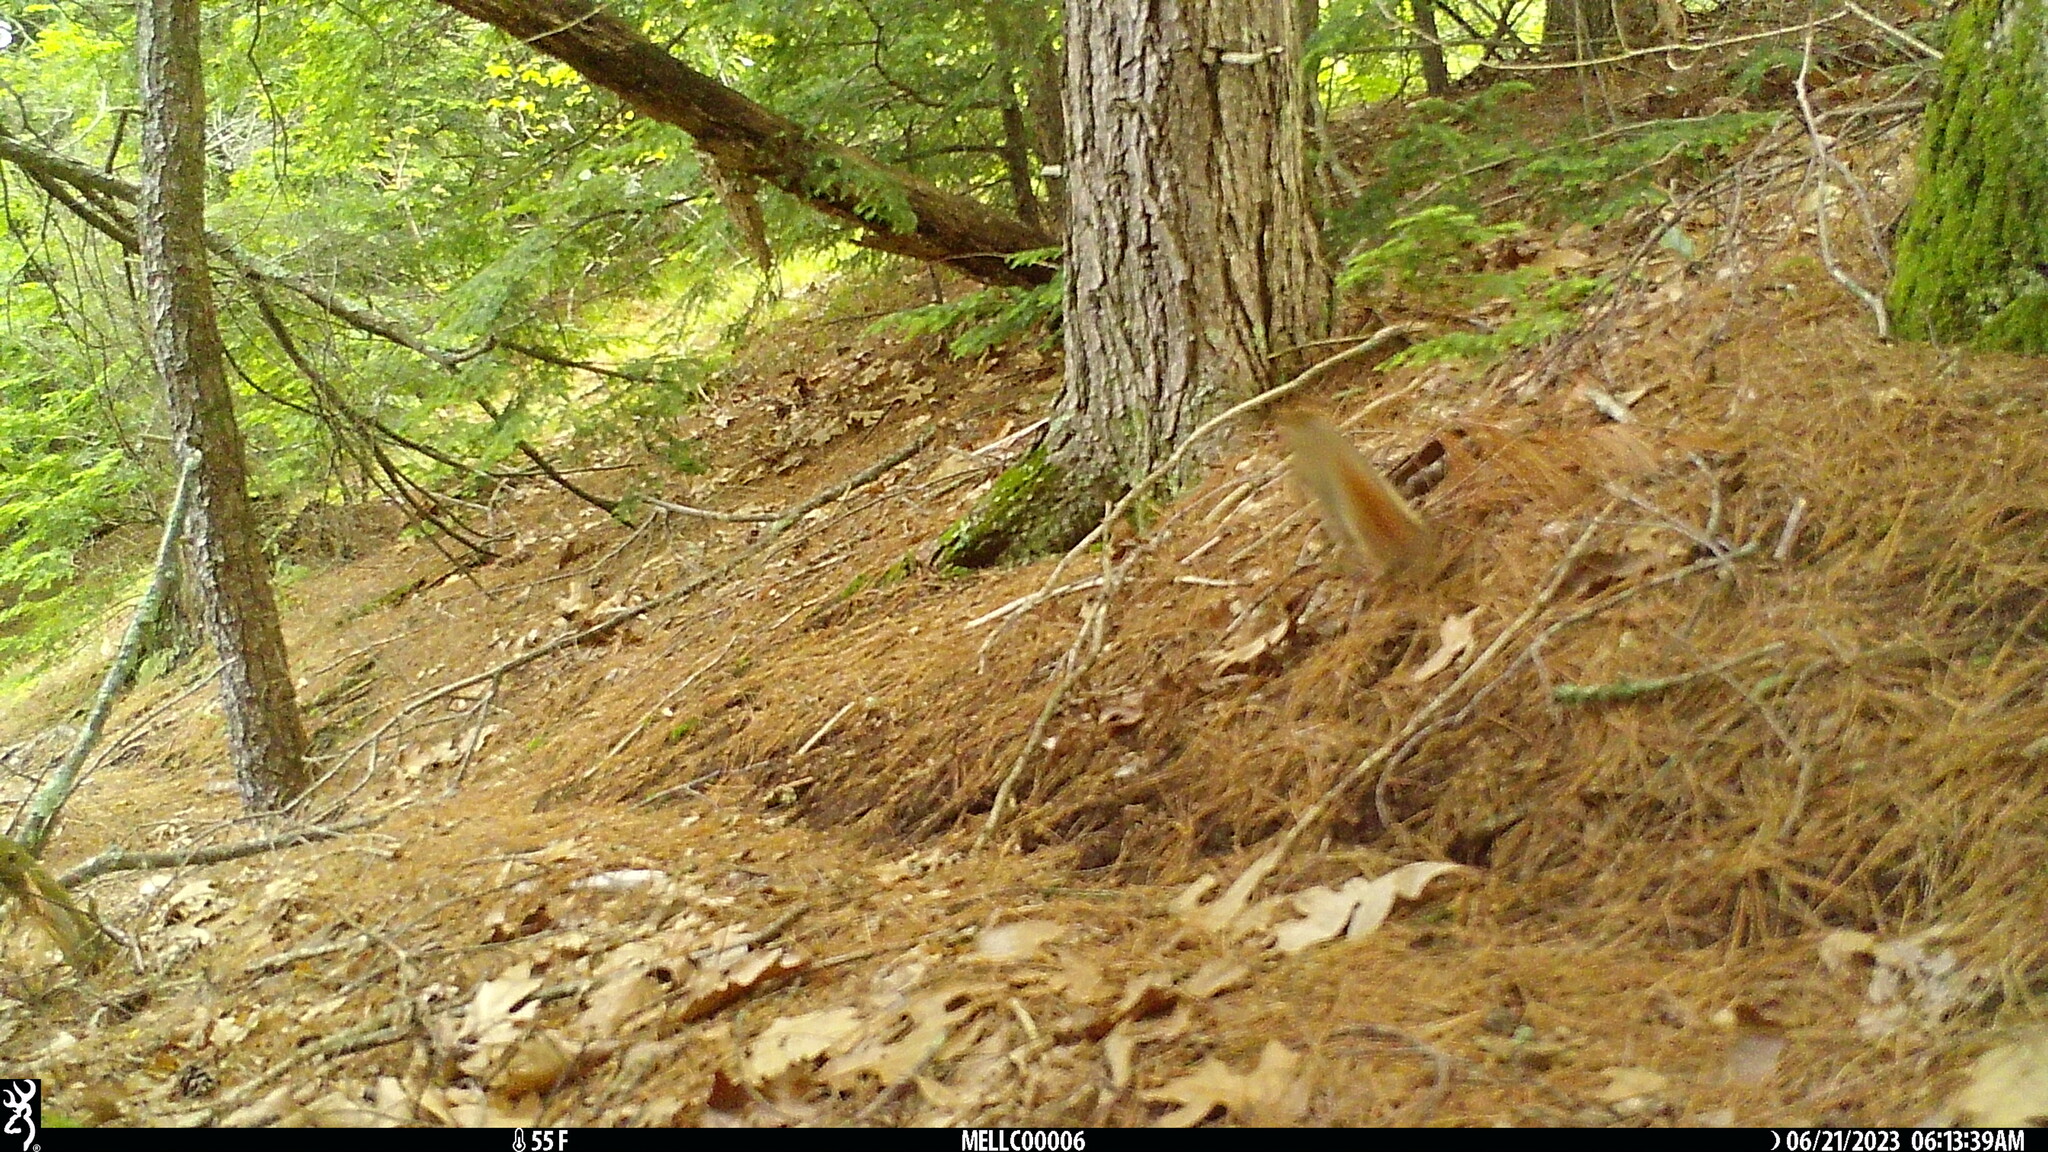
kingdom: Animalia
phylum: Chordata
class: Mammalia
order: Rodentia
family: Sciuridae
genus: Tamiasciurus
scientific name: Tamiasciurus hudsonicus
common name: Red squirrel
